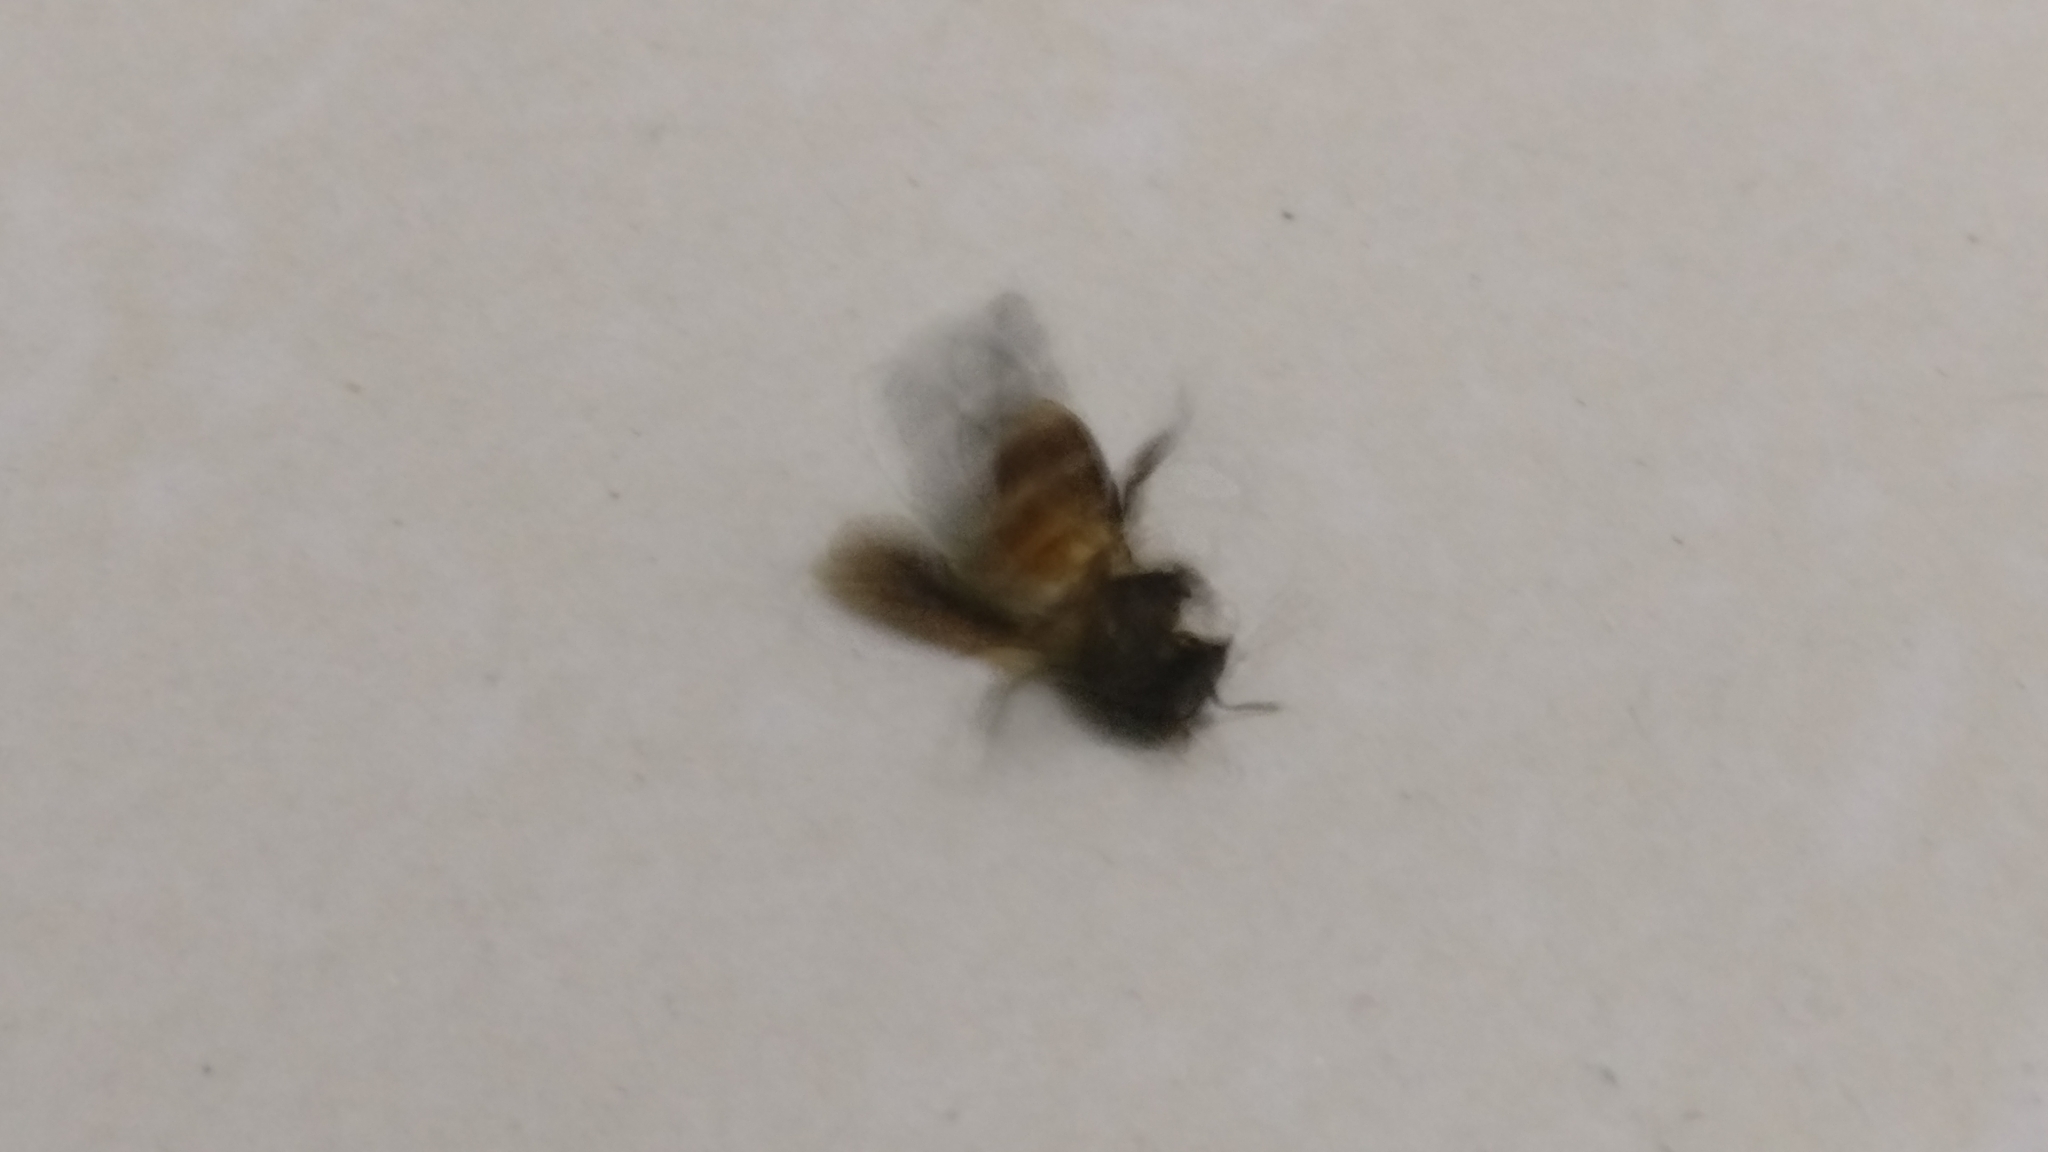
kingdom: Animalia
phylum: Arthropoda
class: Insecta
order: Hymenoptera
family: Apidae
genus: Apis
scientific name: Apis dorsata
